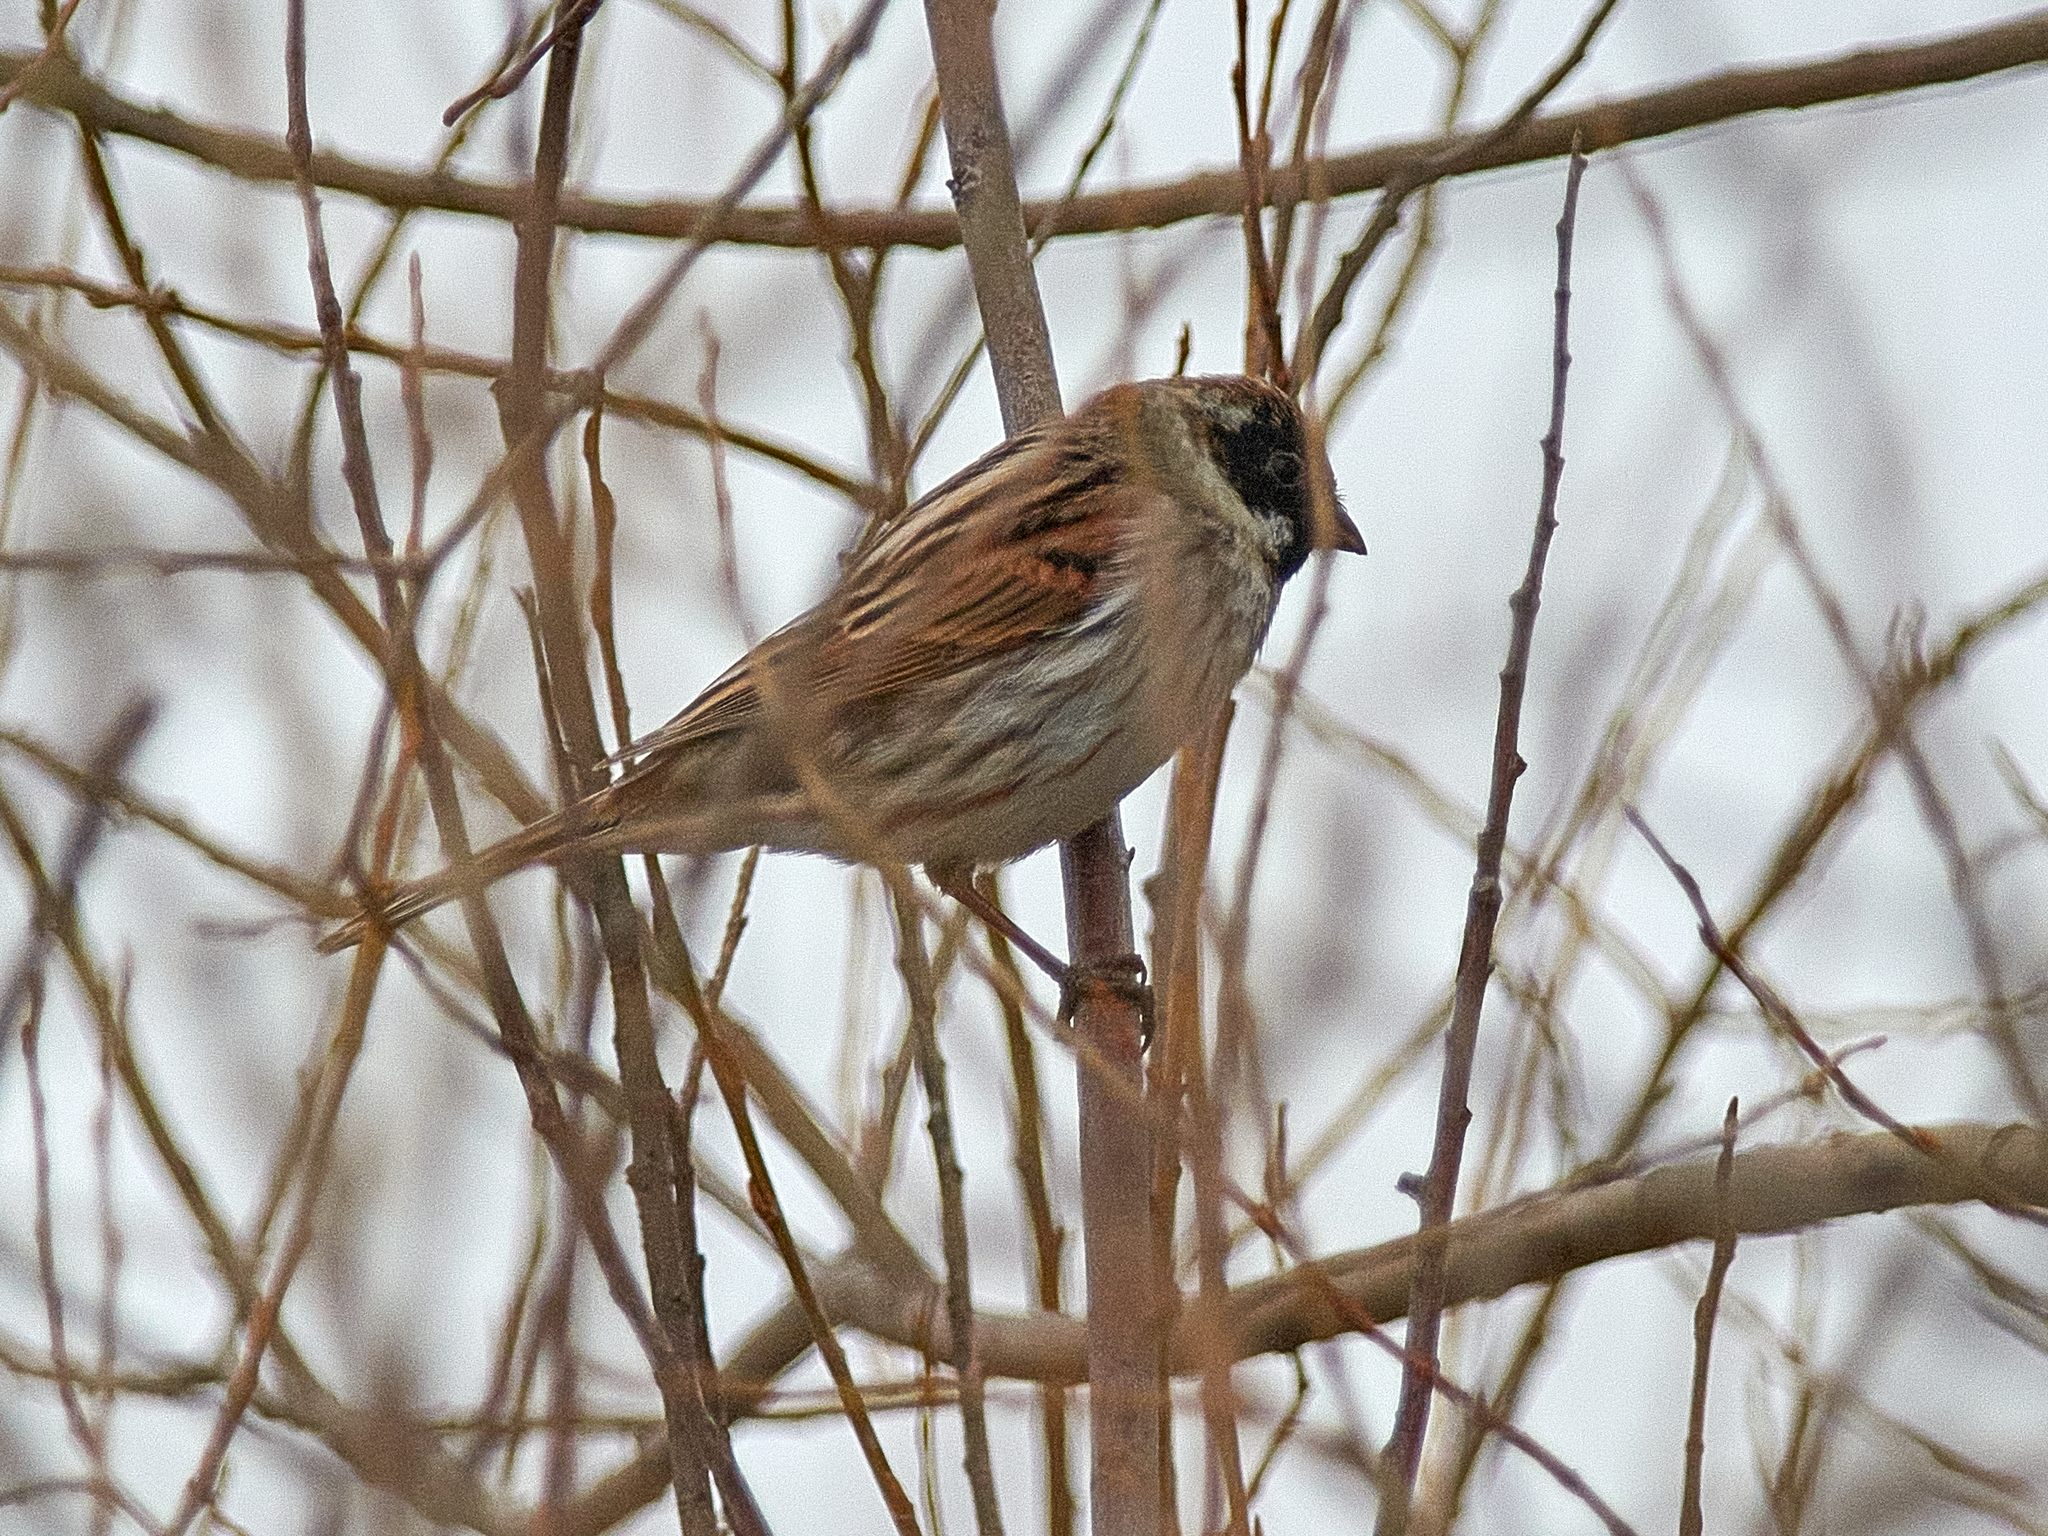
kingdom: Animalia
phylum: Chordata
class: Aves
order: Passeriformes
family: Emberizidae
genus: Emberiza
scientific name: Emberiza schoeniclus
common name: Reed bunting
